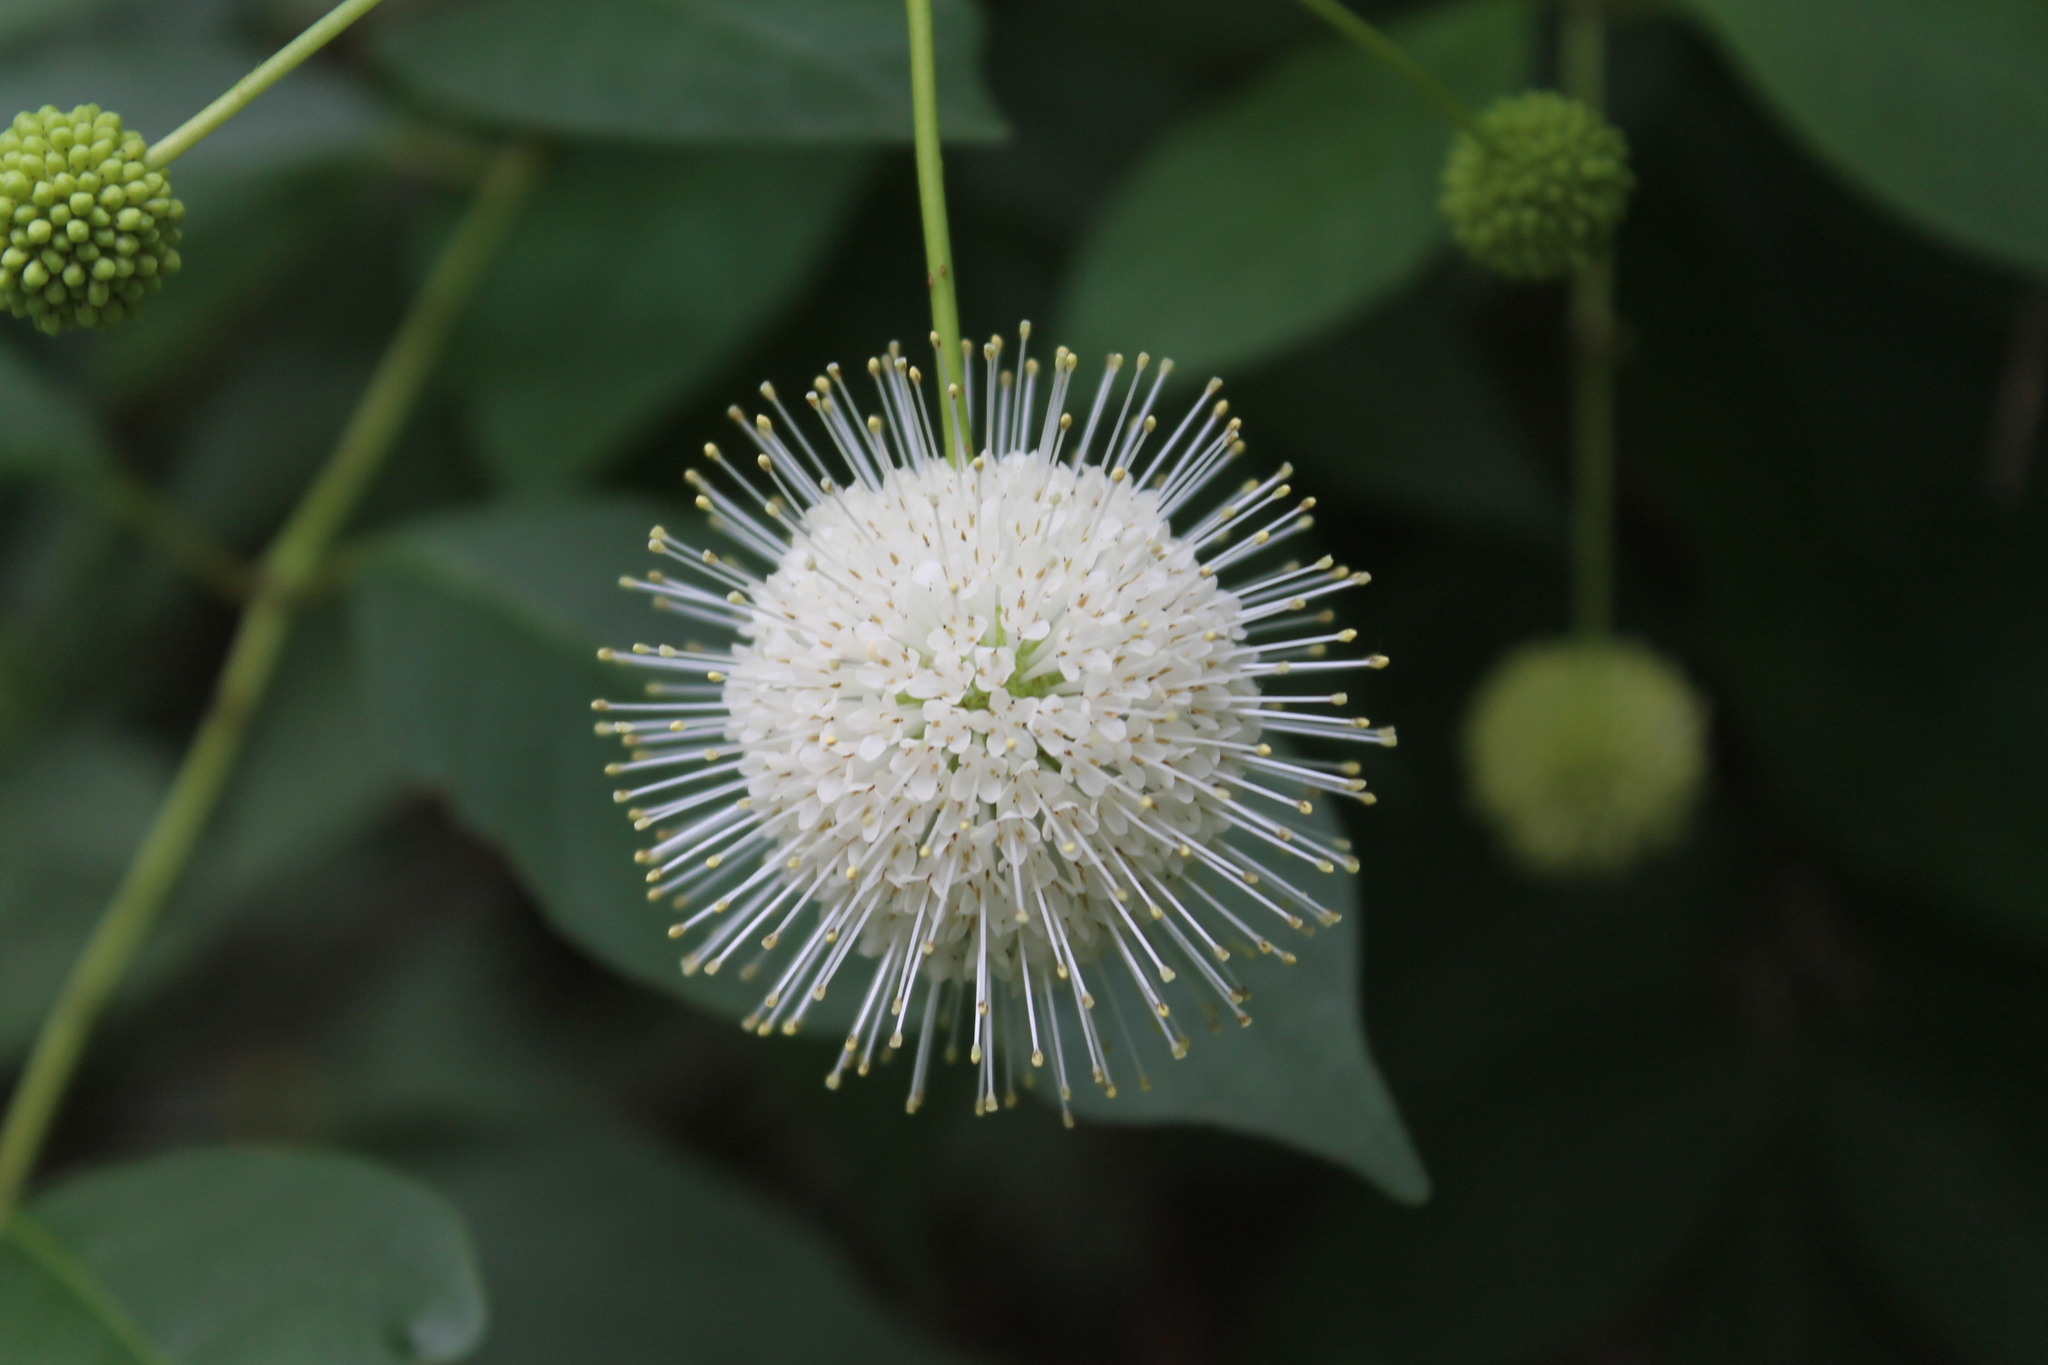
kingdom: Plantae
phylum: Tracheophyta
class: Magnoliopsida
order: Gentianales
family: Rubiaceae
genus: Cephalanthus
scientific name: Cephalanthus occidentalis
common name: Button-willow
